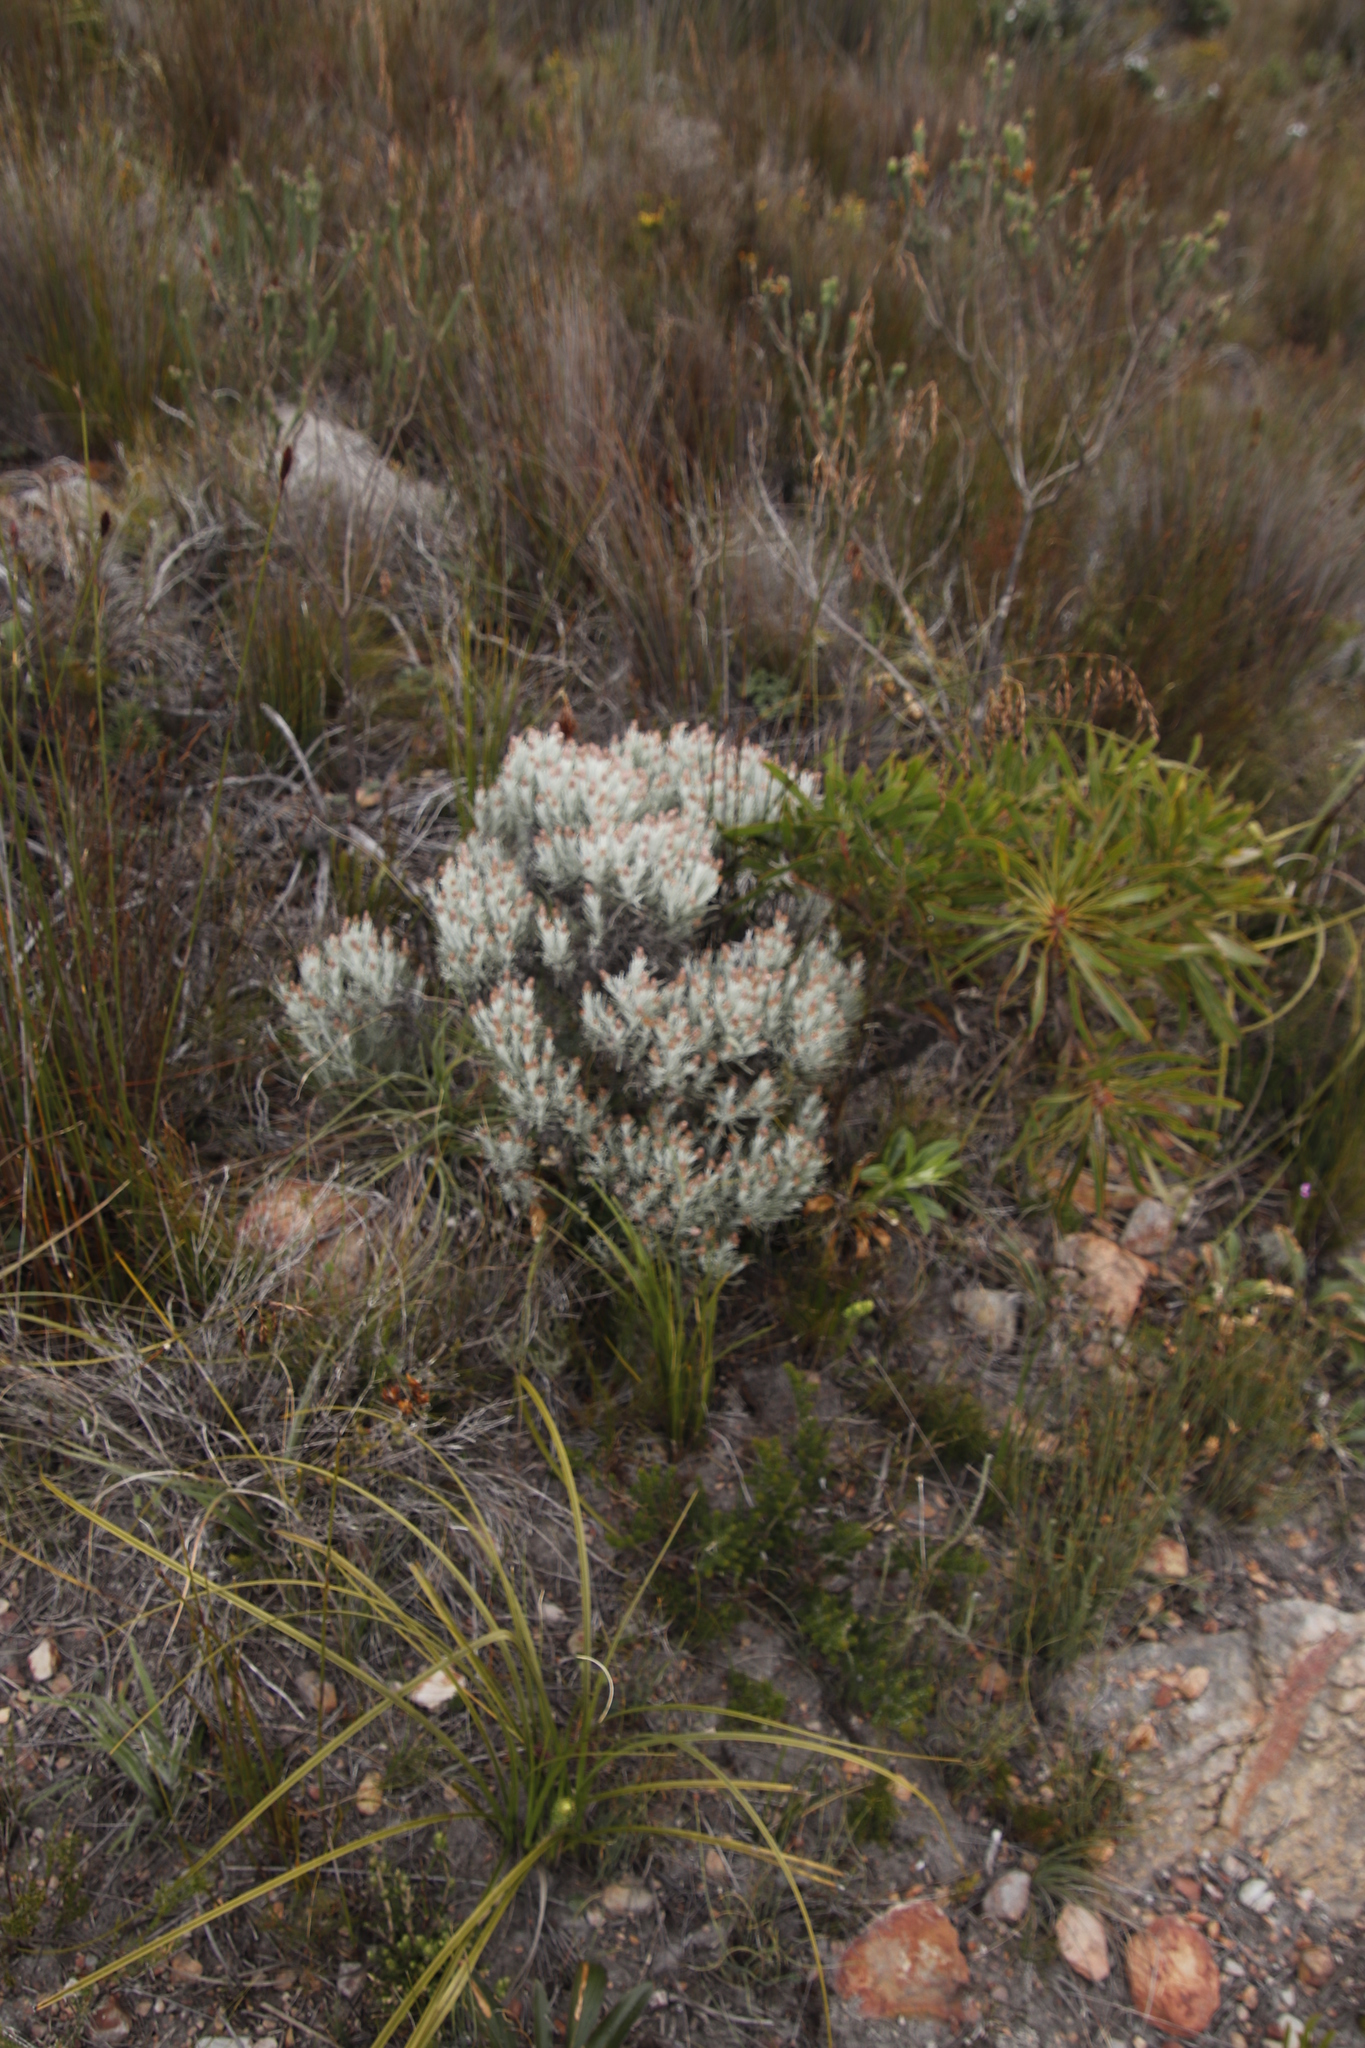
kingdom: Plantae
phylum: Tracheophyta
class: Magnoliopsida
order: Asterales
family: Asteraceae
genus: Syncarpha
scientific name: Syncarpha gnaphaloides
